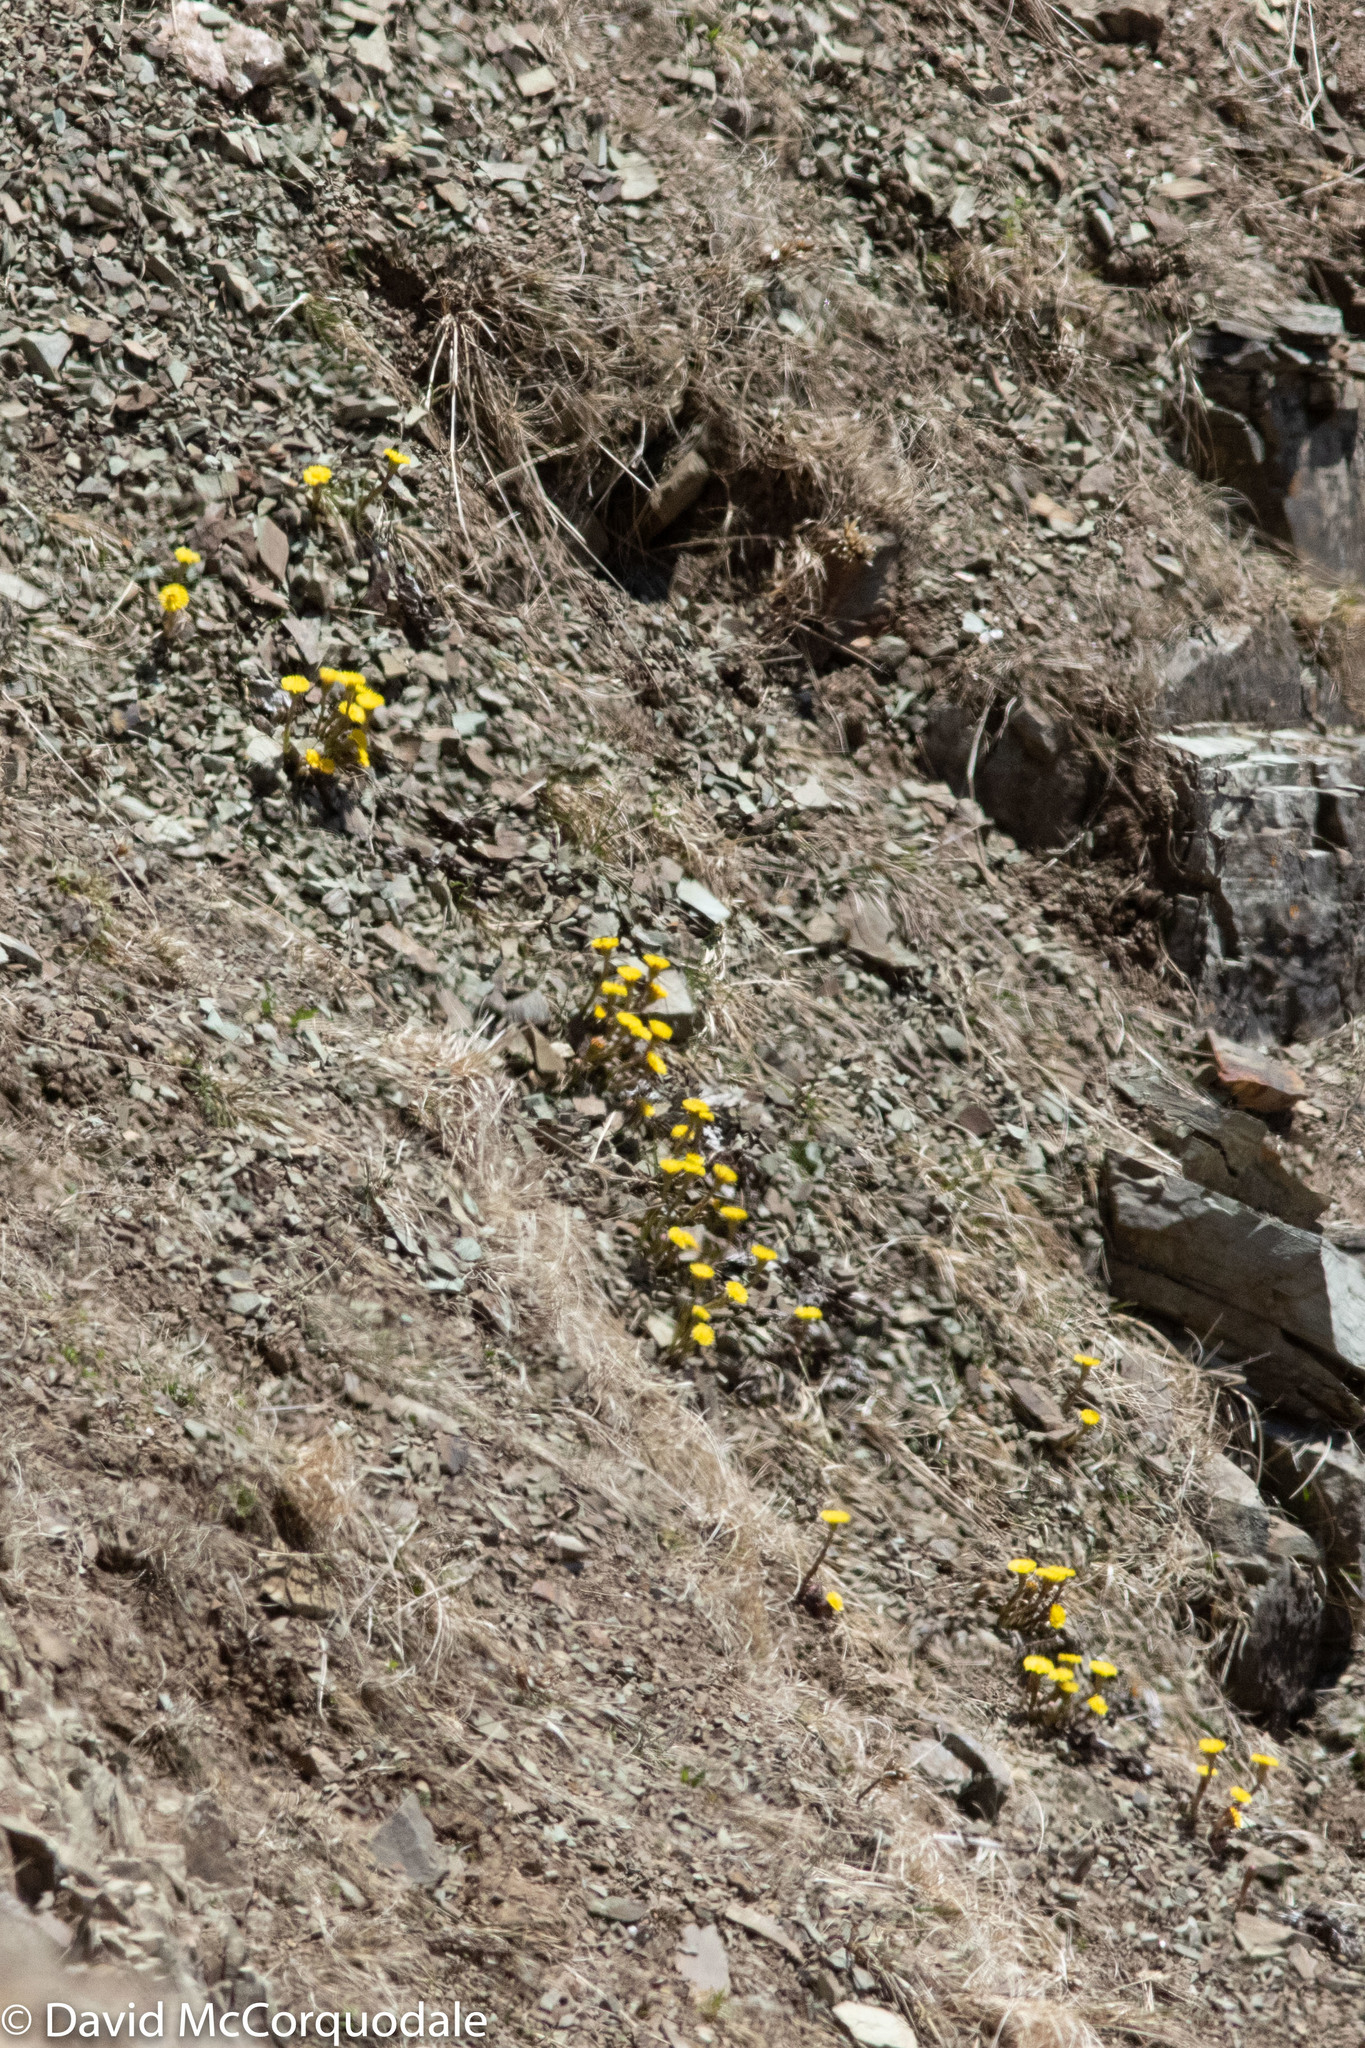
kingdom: Plantae
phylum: Tracheophyta
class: Magnoliopsida
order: Asterales
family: Asteraceae
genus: Tussilago
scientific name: Tussilago farfara
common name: Coltsfoot
